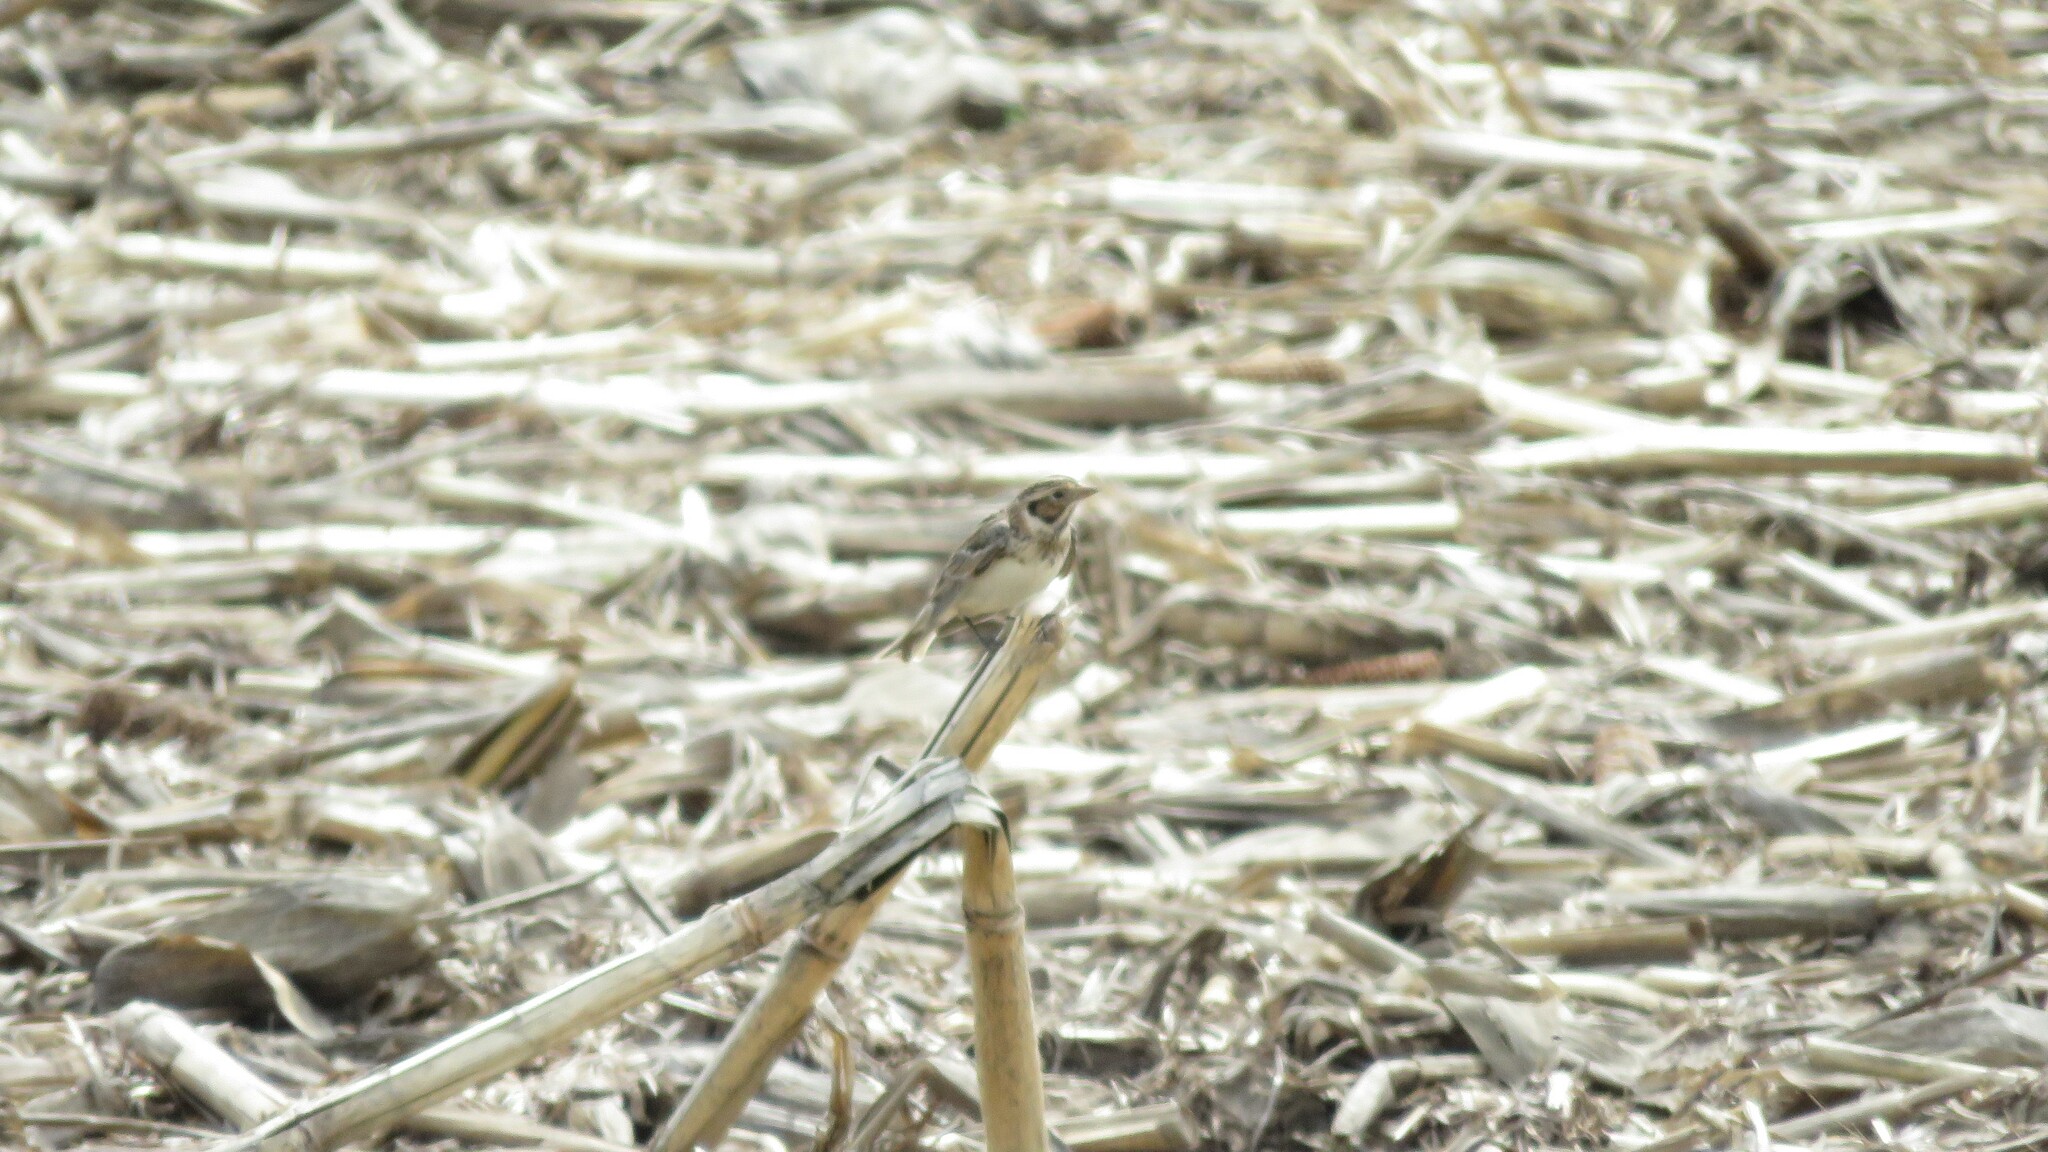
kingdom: Animalia
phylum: Chordata
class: Aves
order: Passeriformes
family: Calcariidae
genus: Calcarius
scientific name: Calcarius lapponicus
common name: Lapland longspur
